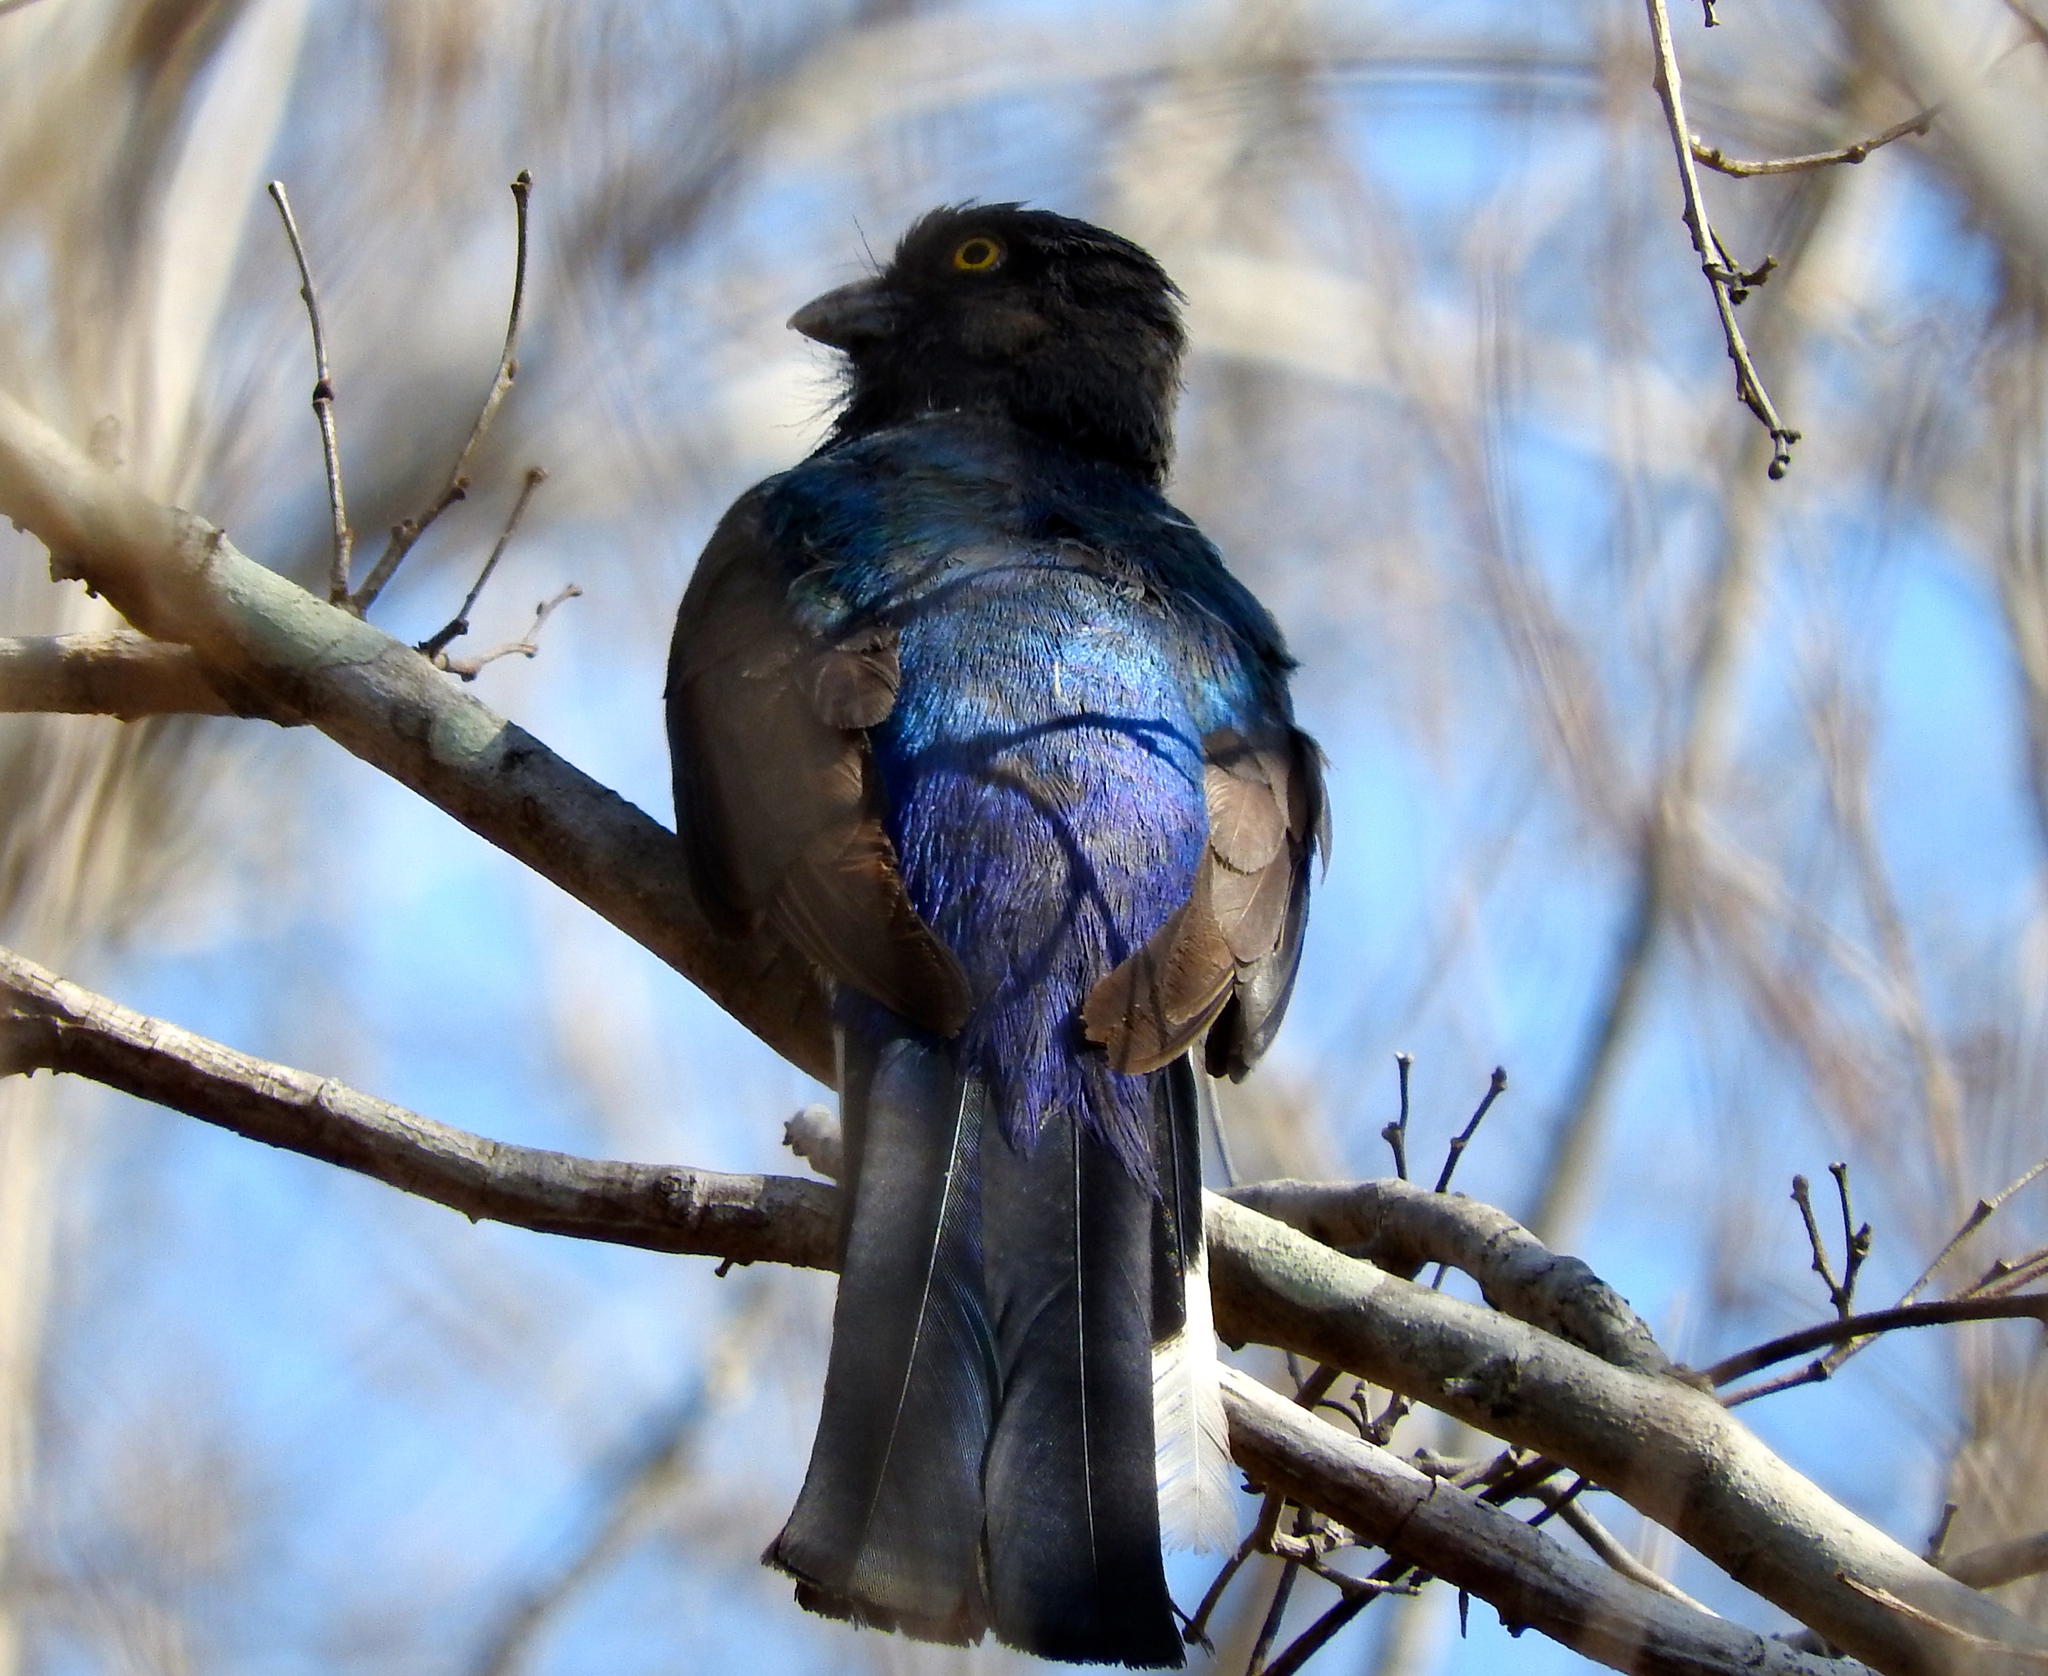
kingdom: Animalia
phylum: Chordata
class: Aves
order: Trogoniformes
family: Trogonidae
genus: Trogon
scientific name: Trogon citreolus
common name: Citreoline trogon
